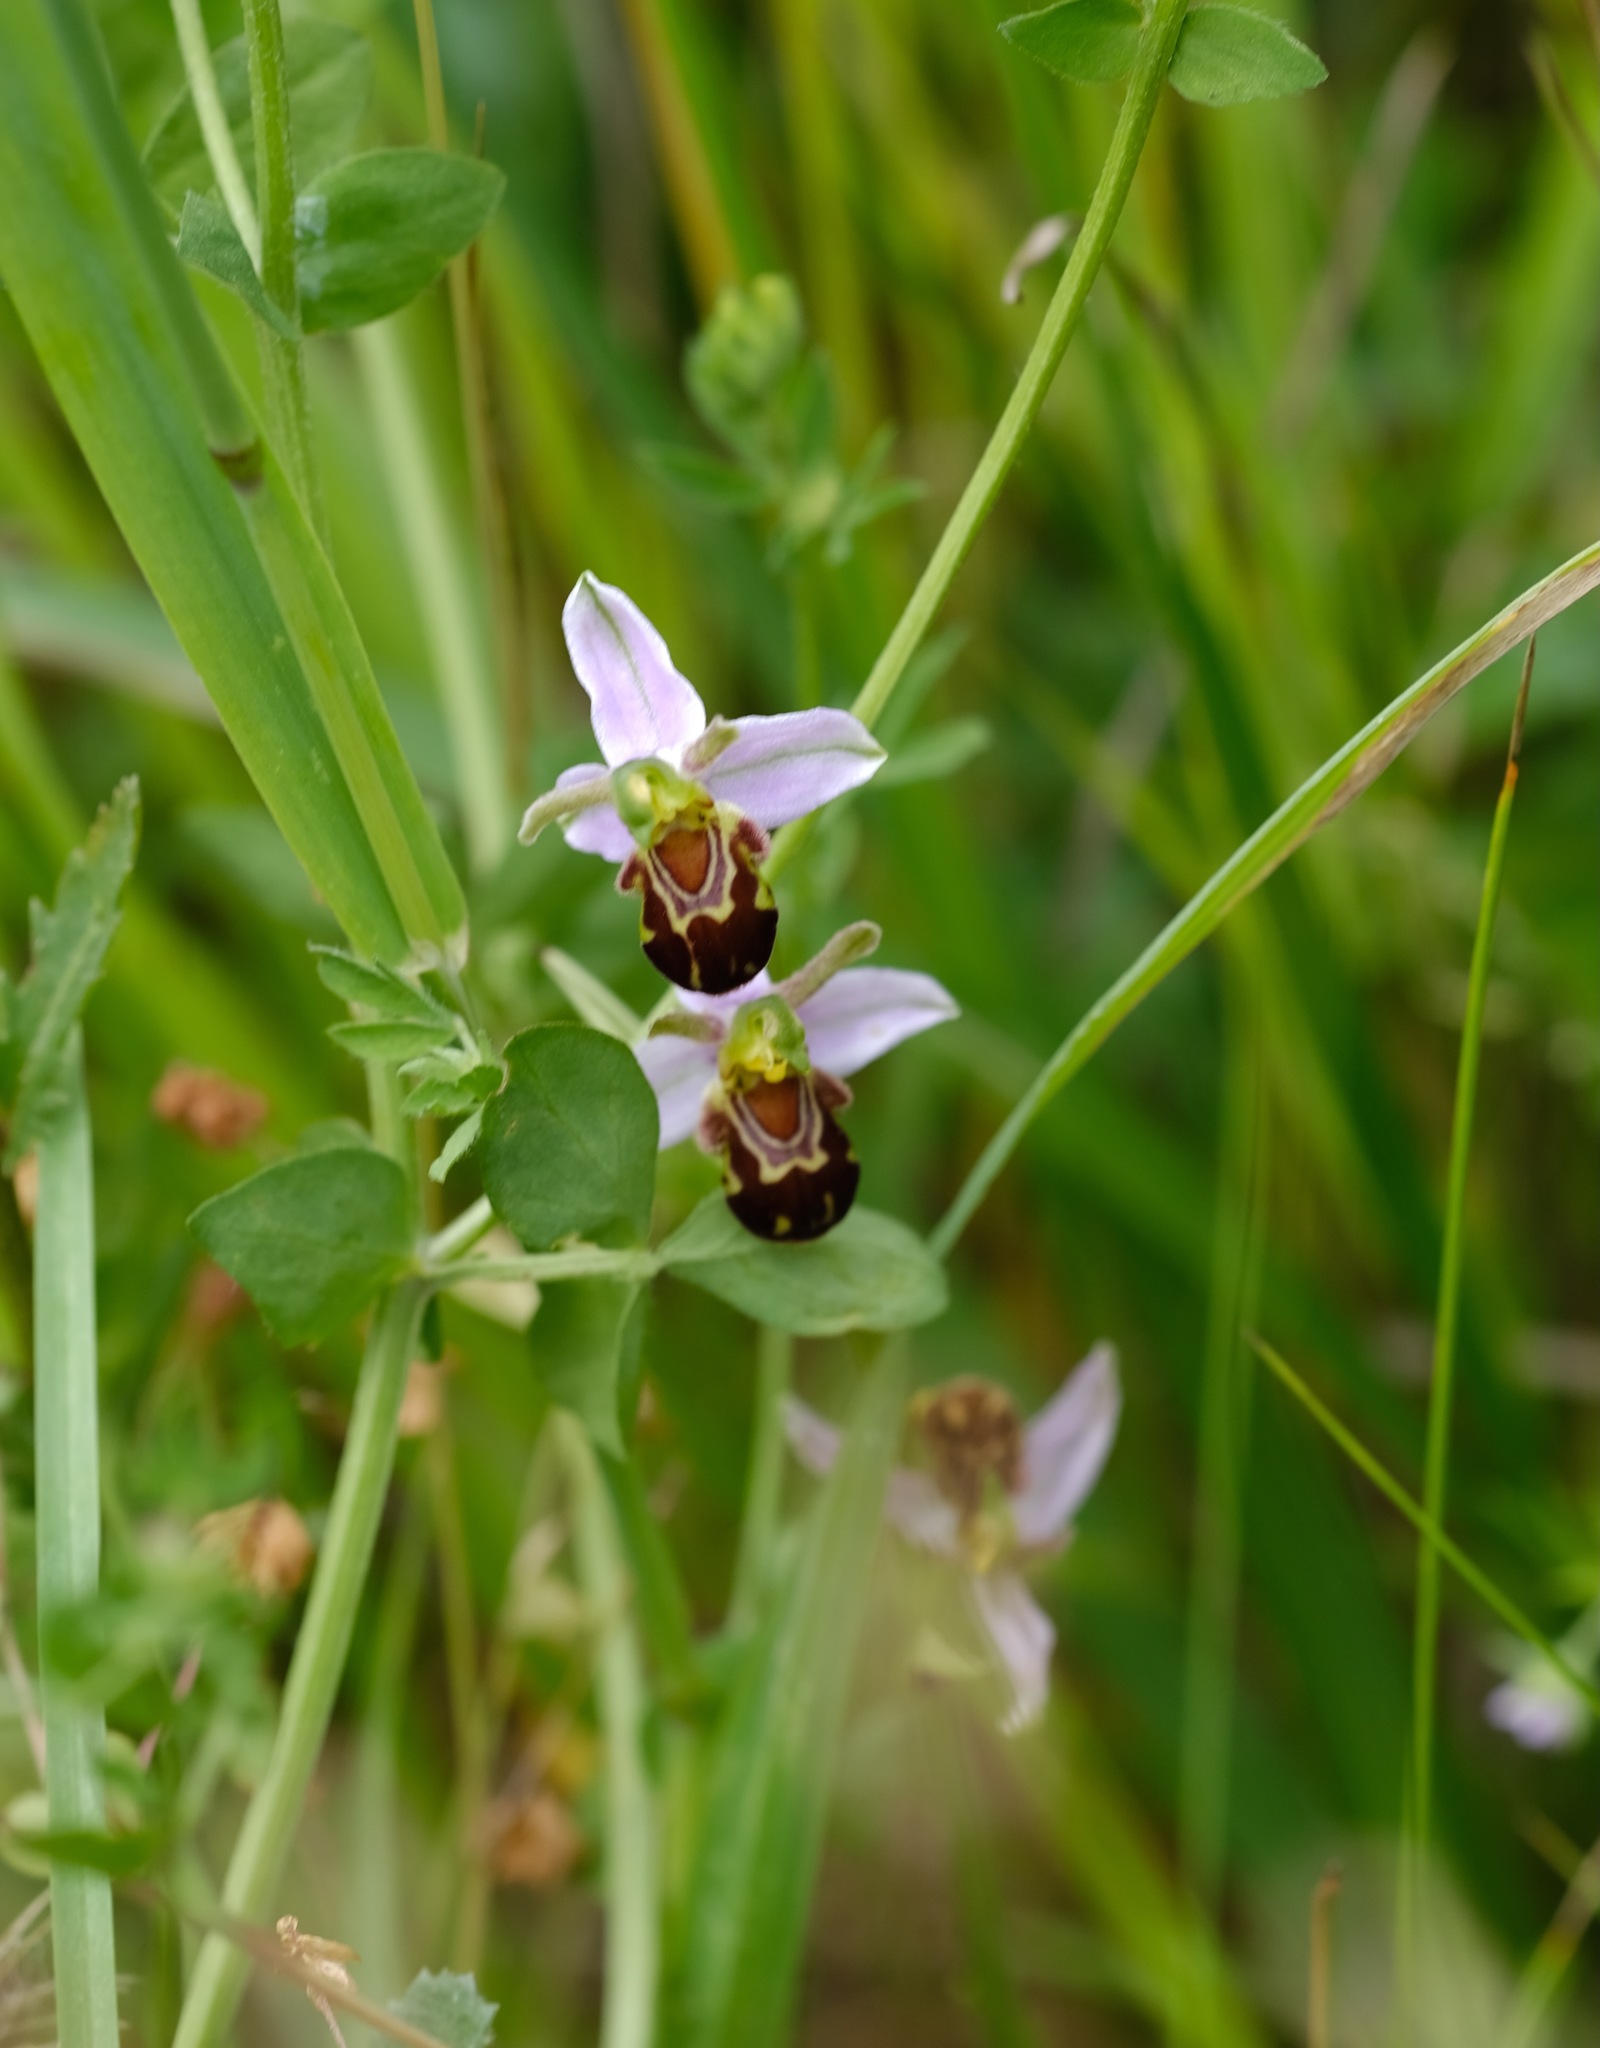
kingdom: Plantae
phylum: Tracheophyta
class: Liliopsida
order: Asparagales
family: Orchidaceae
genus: Ophrys
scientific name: Ophrys apifera
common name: Bee orchid
